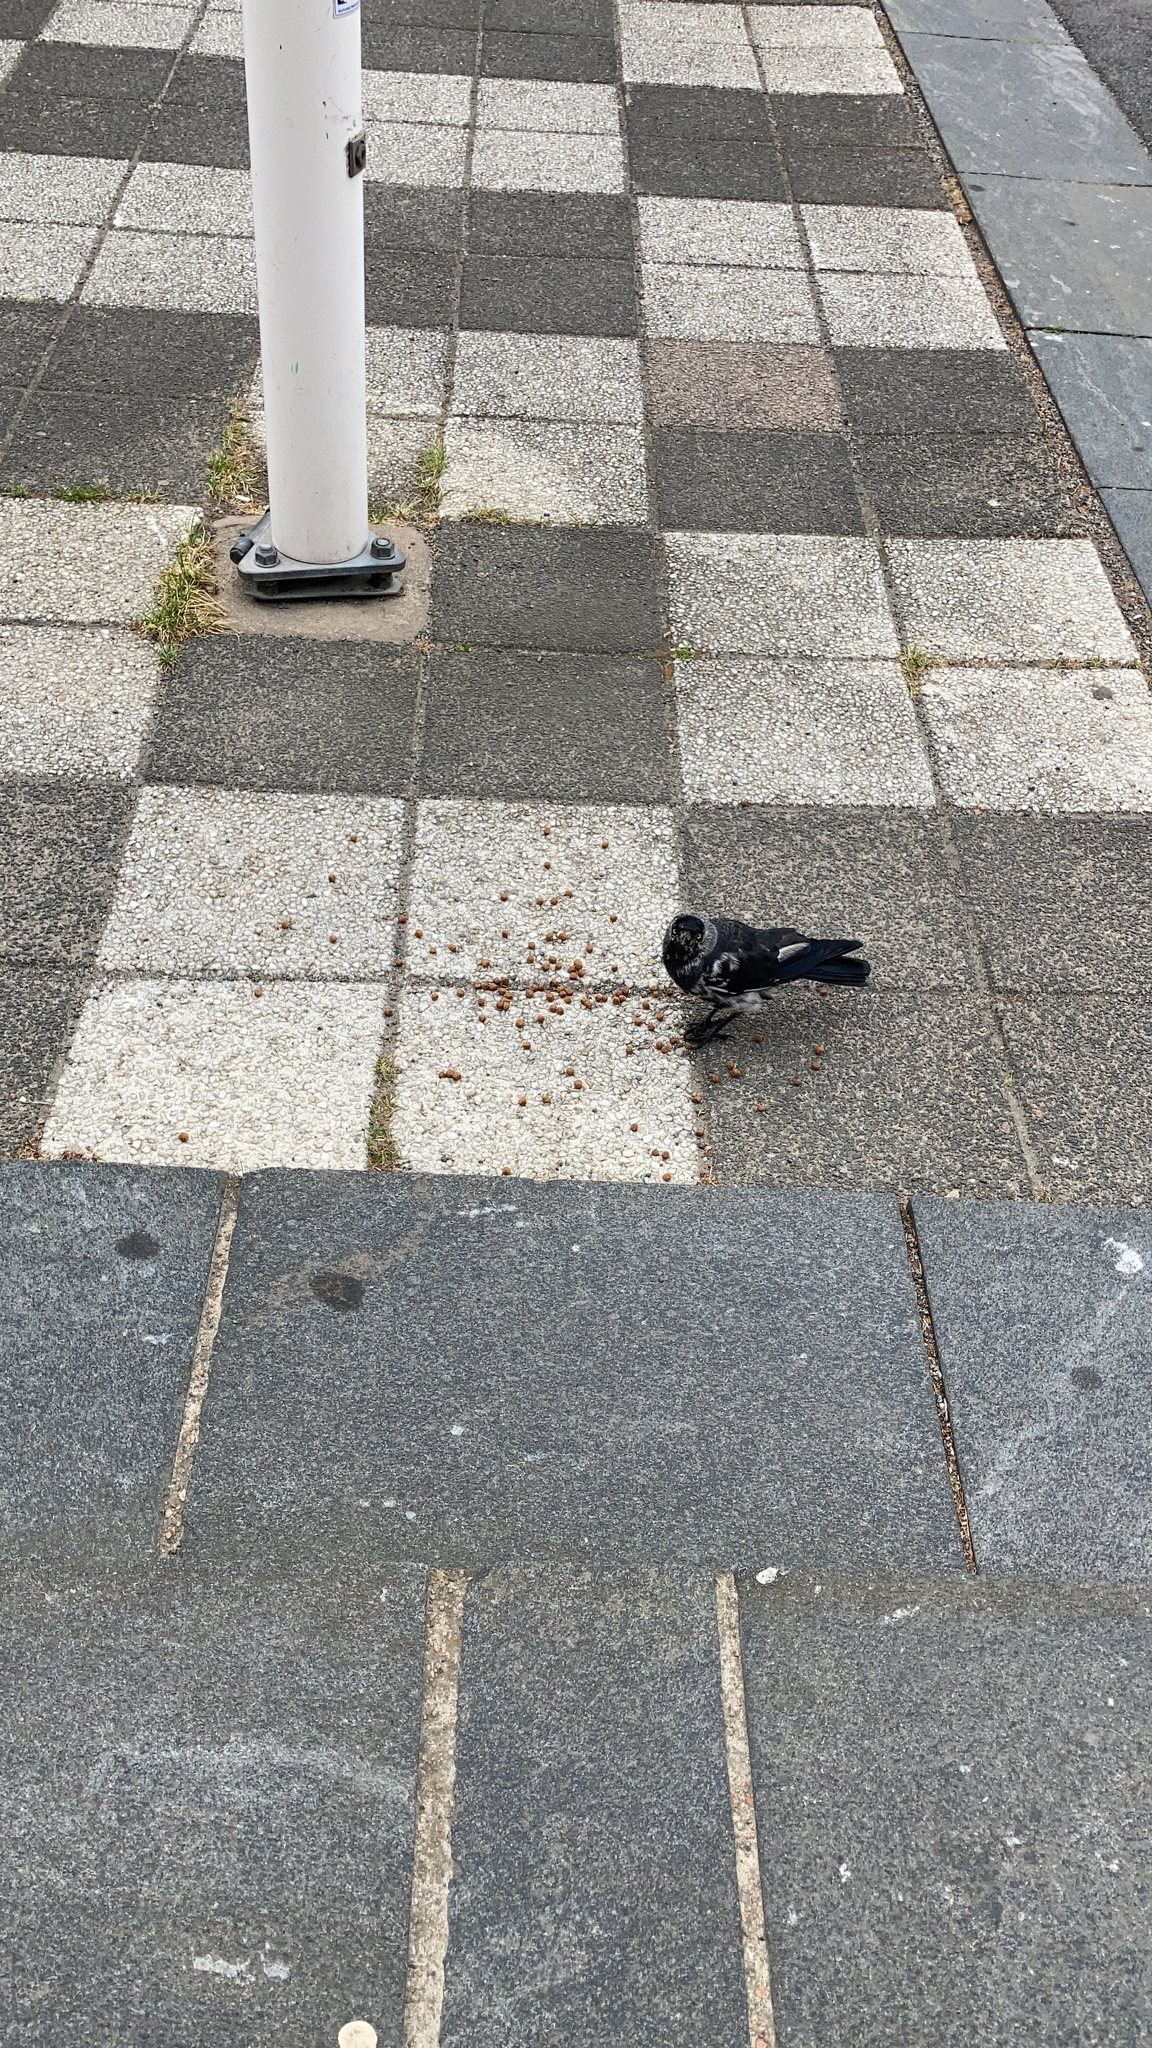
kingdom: Animalia
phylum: Chordata
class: Aves
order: Passeriformes
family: Corvidae
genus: Coloeus
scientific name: Coloeus monedula
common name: Western jackdaw
